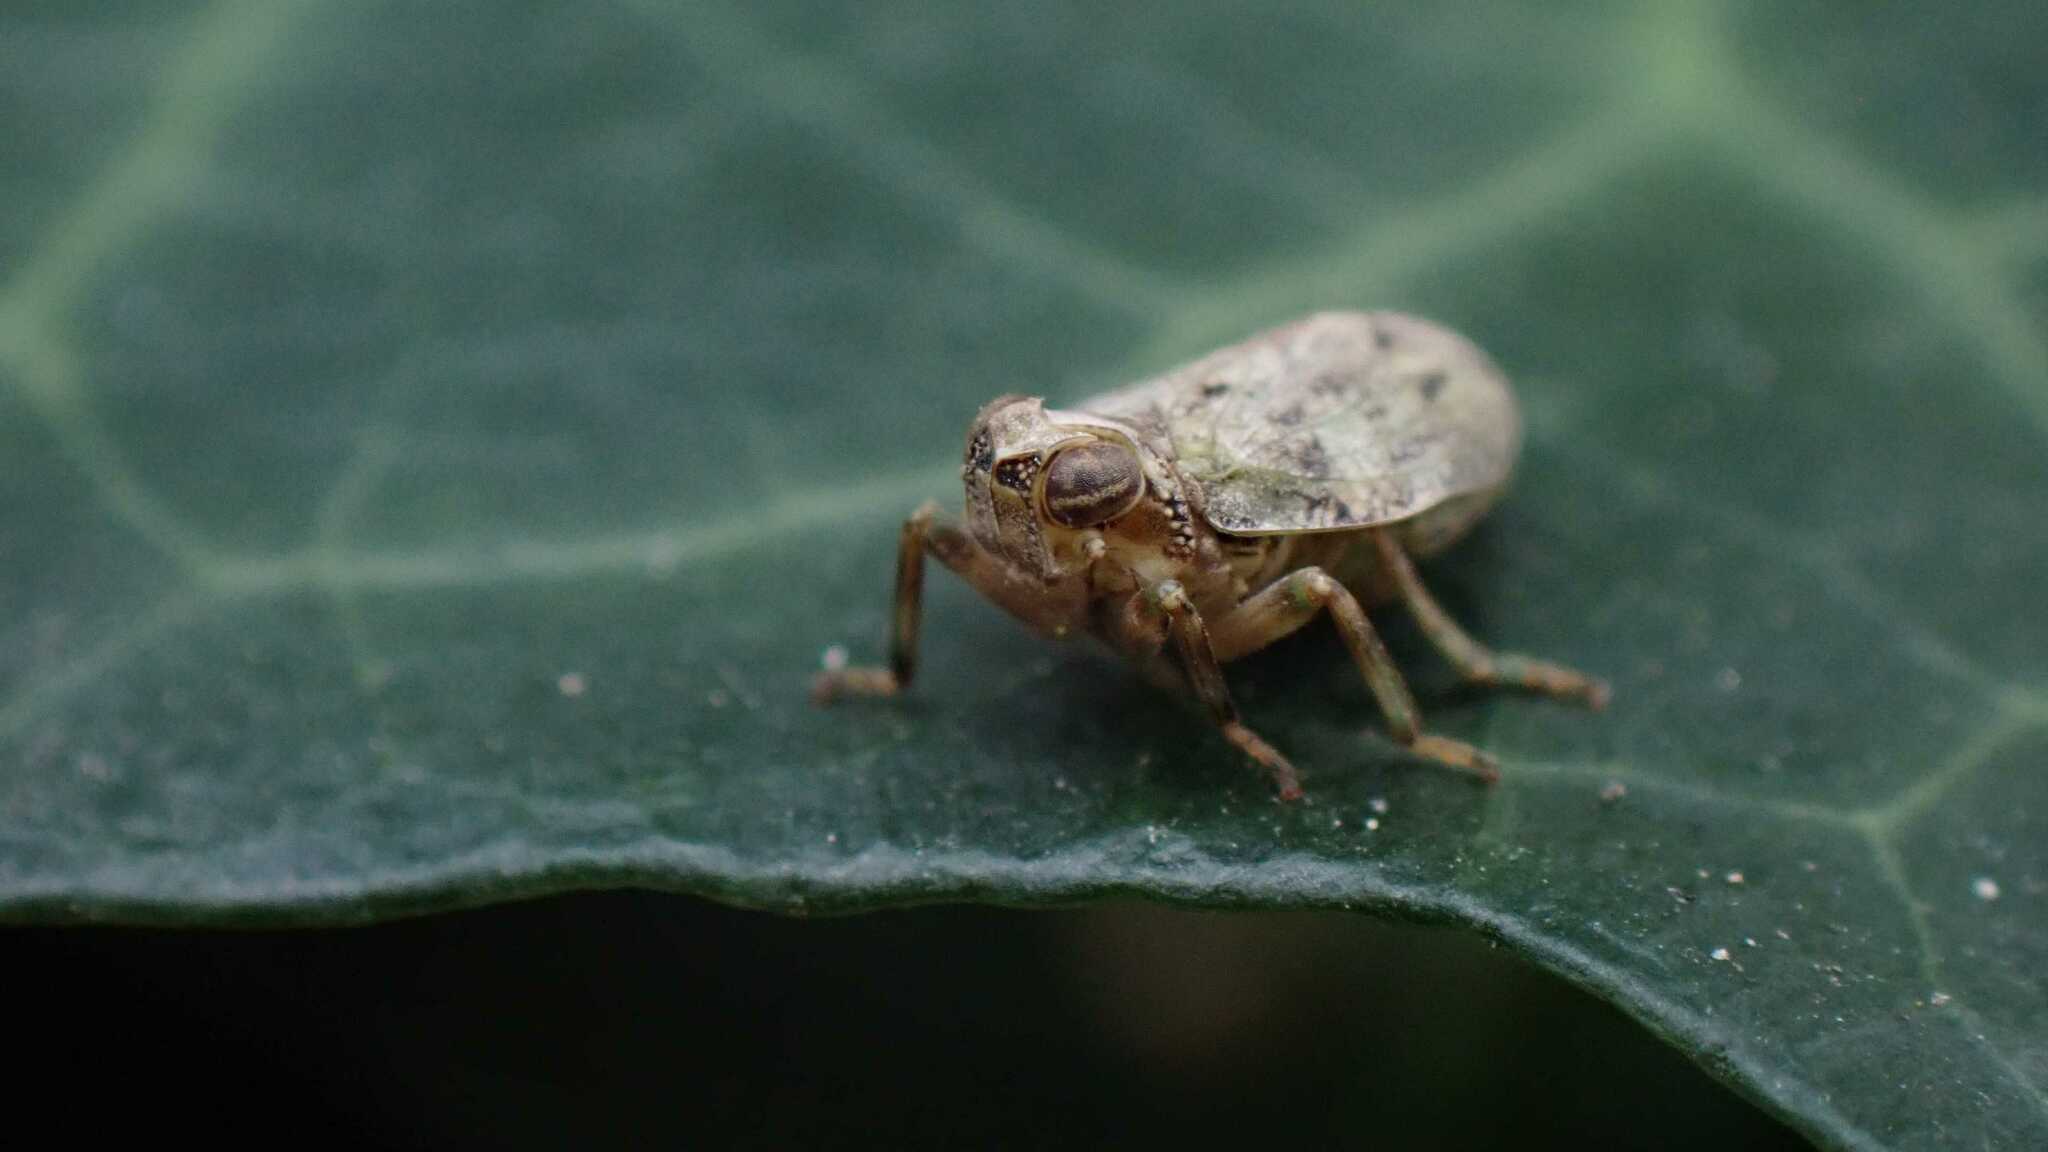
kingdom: Animalia
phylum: Arthropoda
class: Insecta
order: Hemiptera
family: Issidae
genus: Issus
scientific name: Issus coleoptratus
